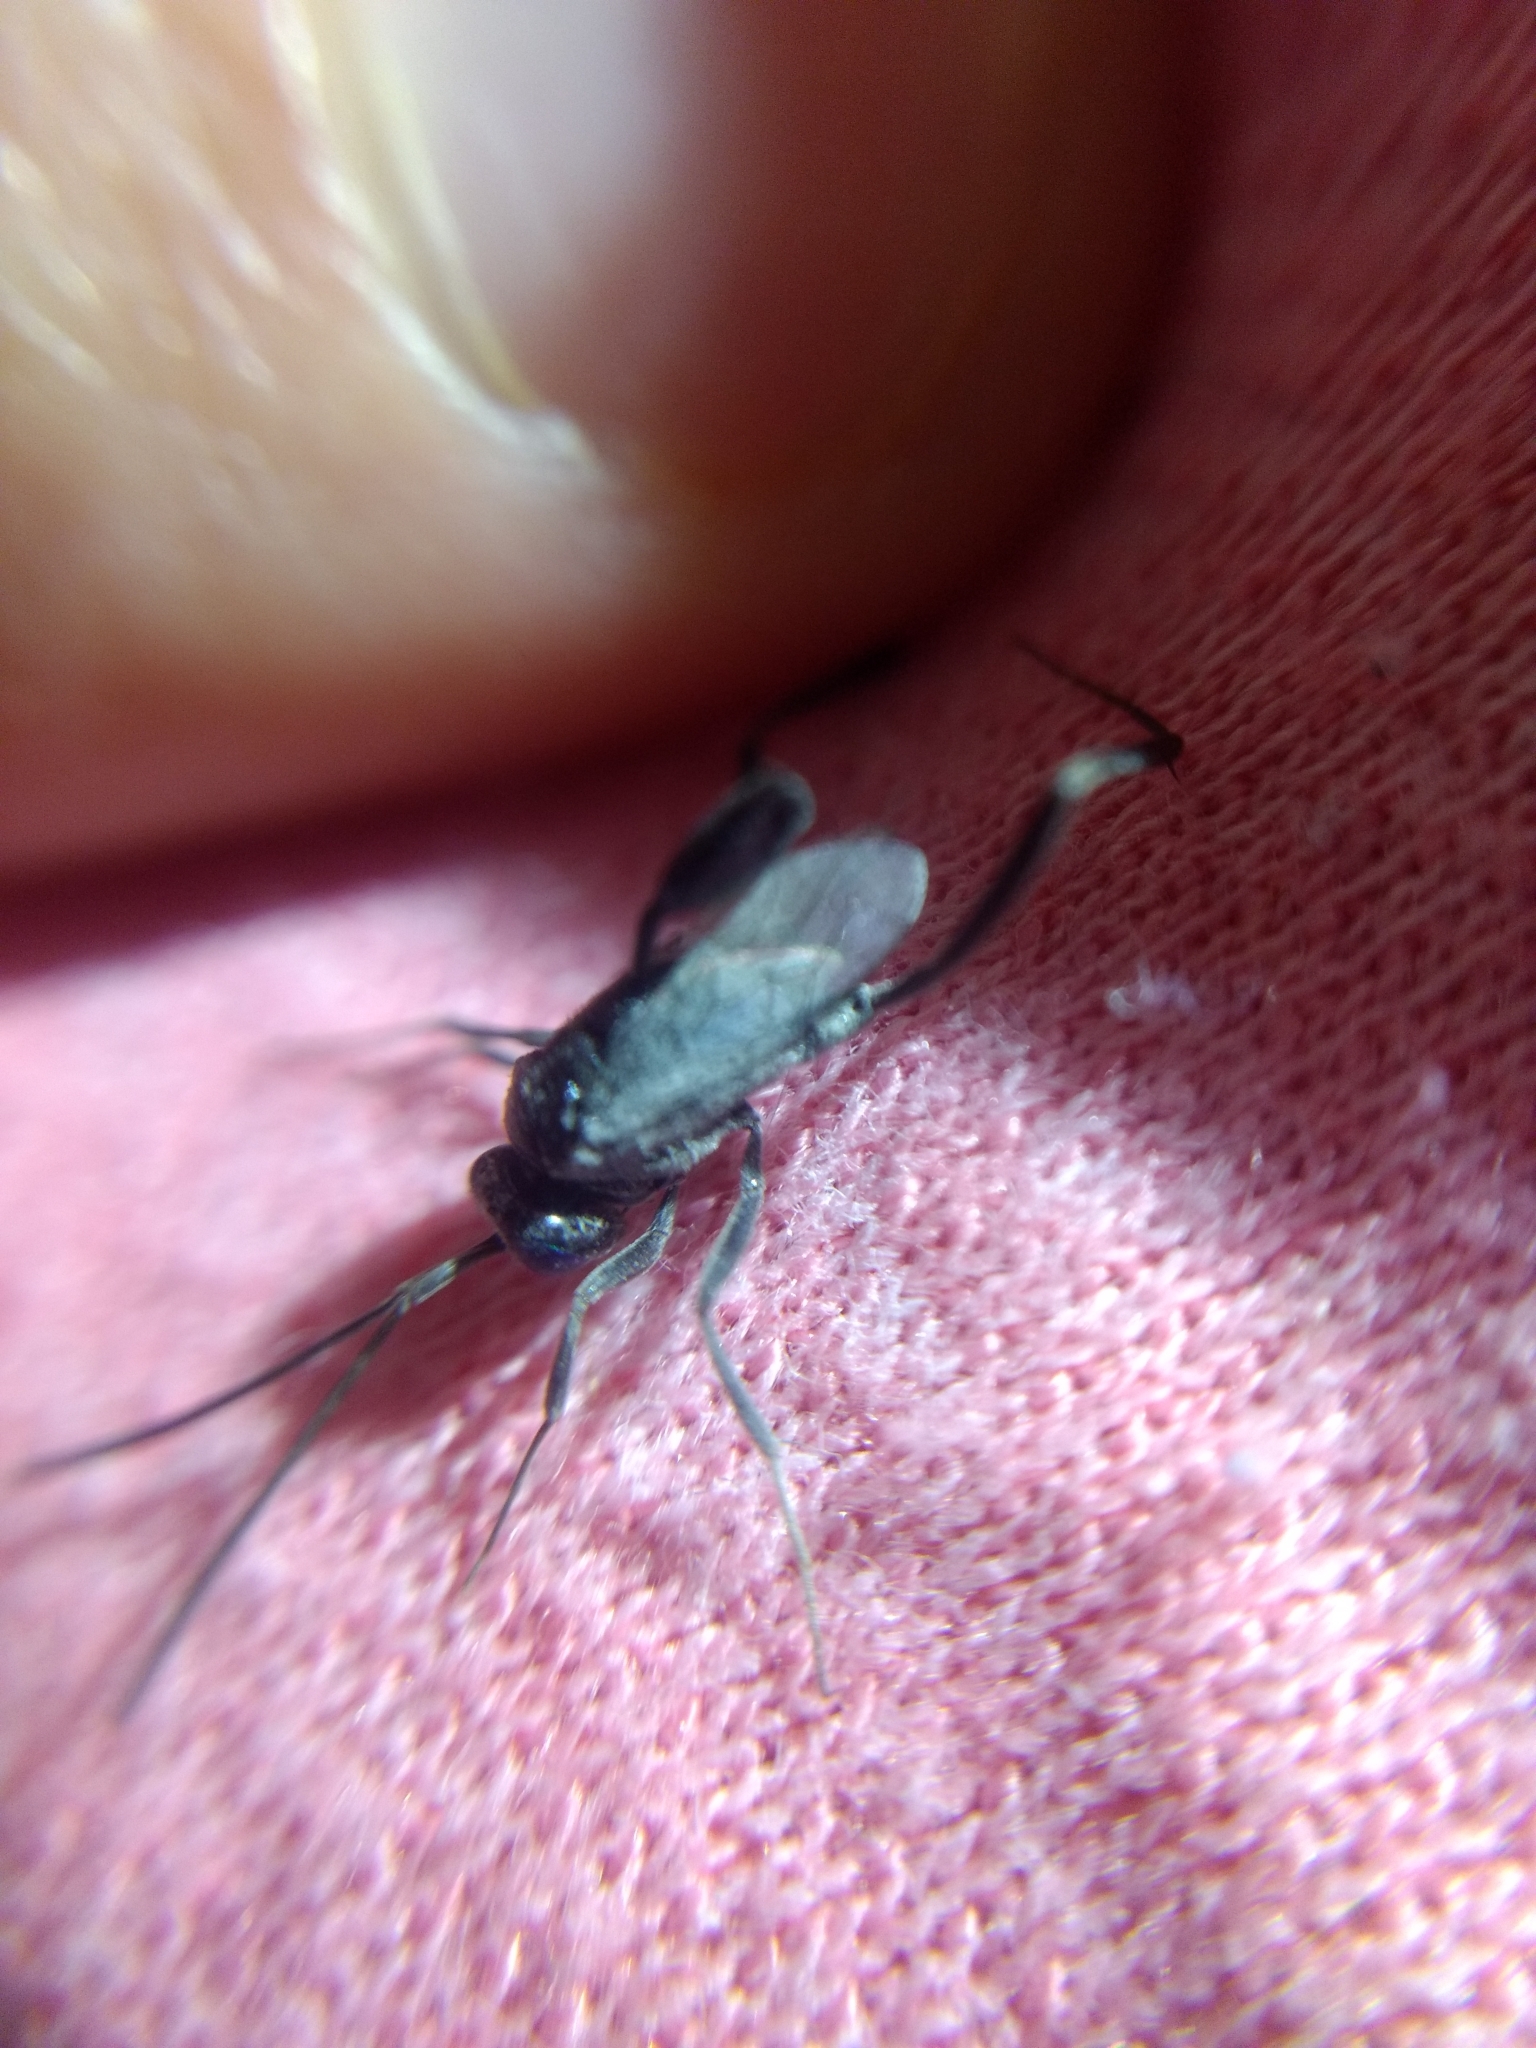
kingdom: Animalia
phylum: Arthropoda
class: Insecta
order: Hymenoptera
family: Evaniidae
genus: Evania
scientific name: Evania appendigaster
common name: Ensign wasp
